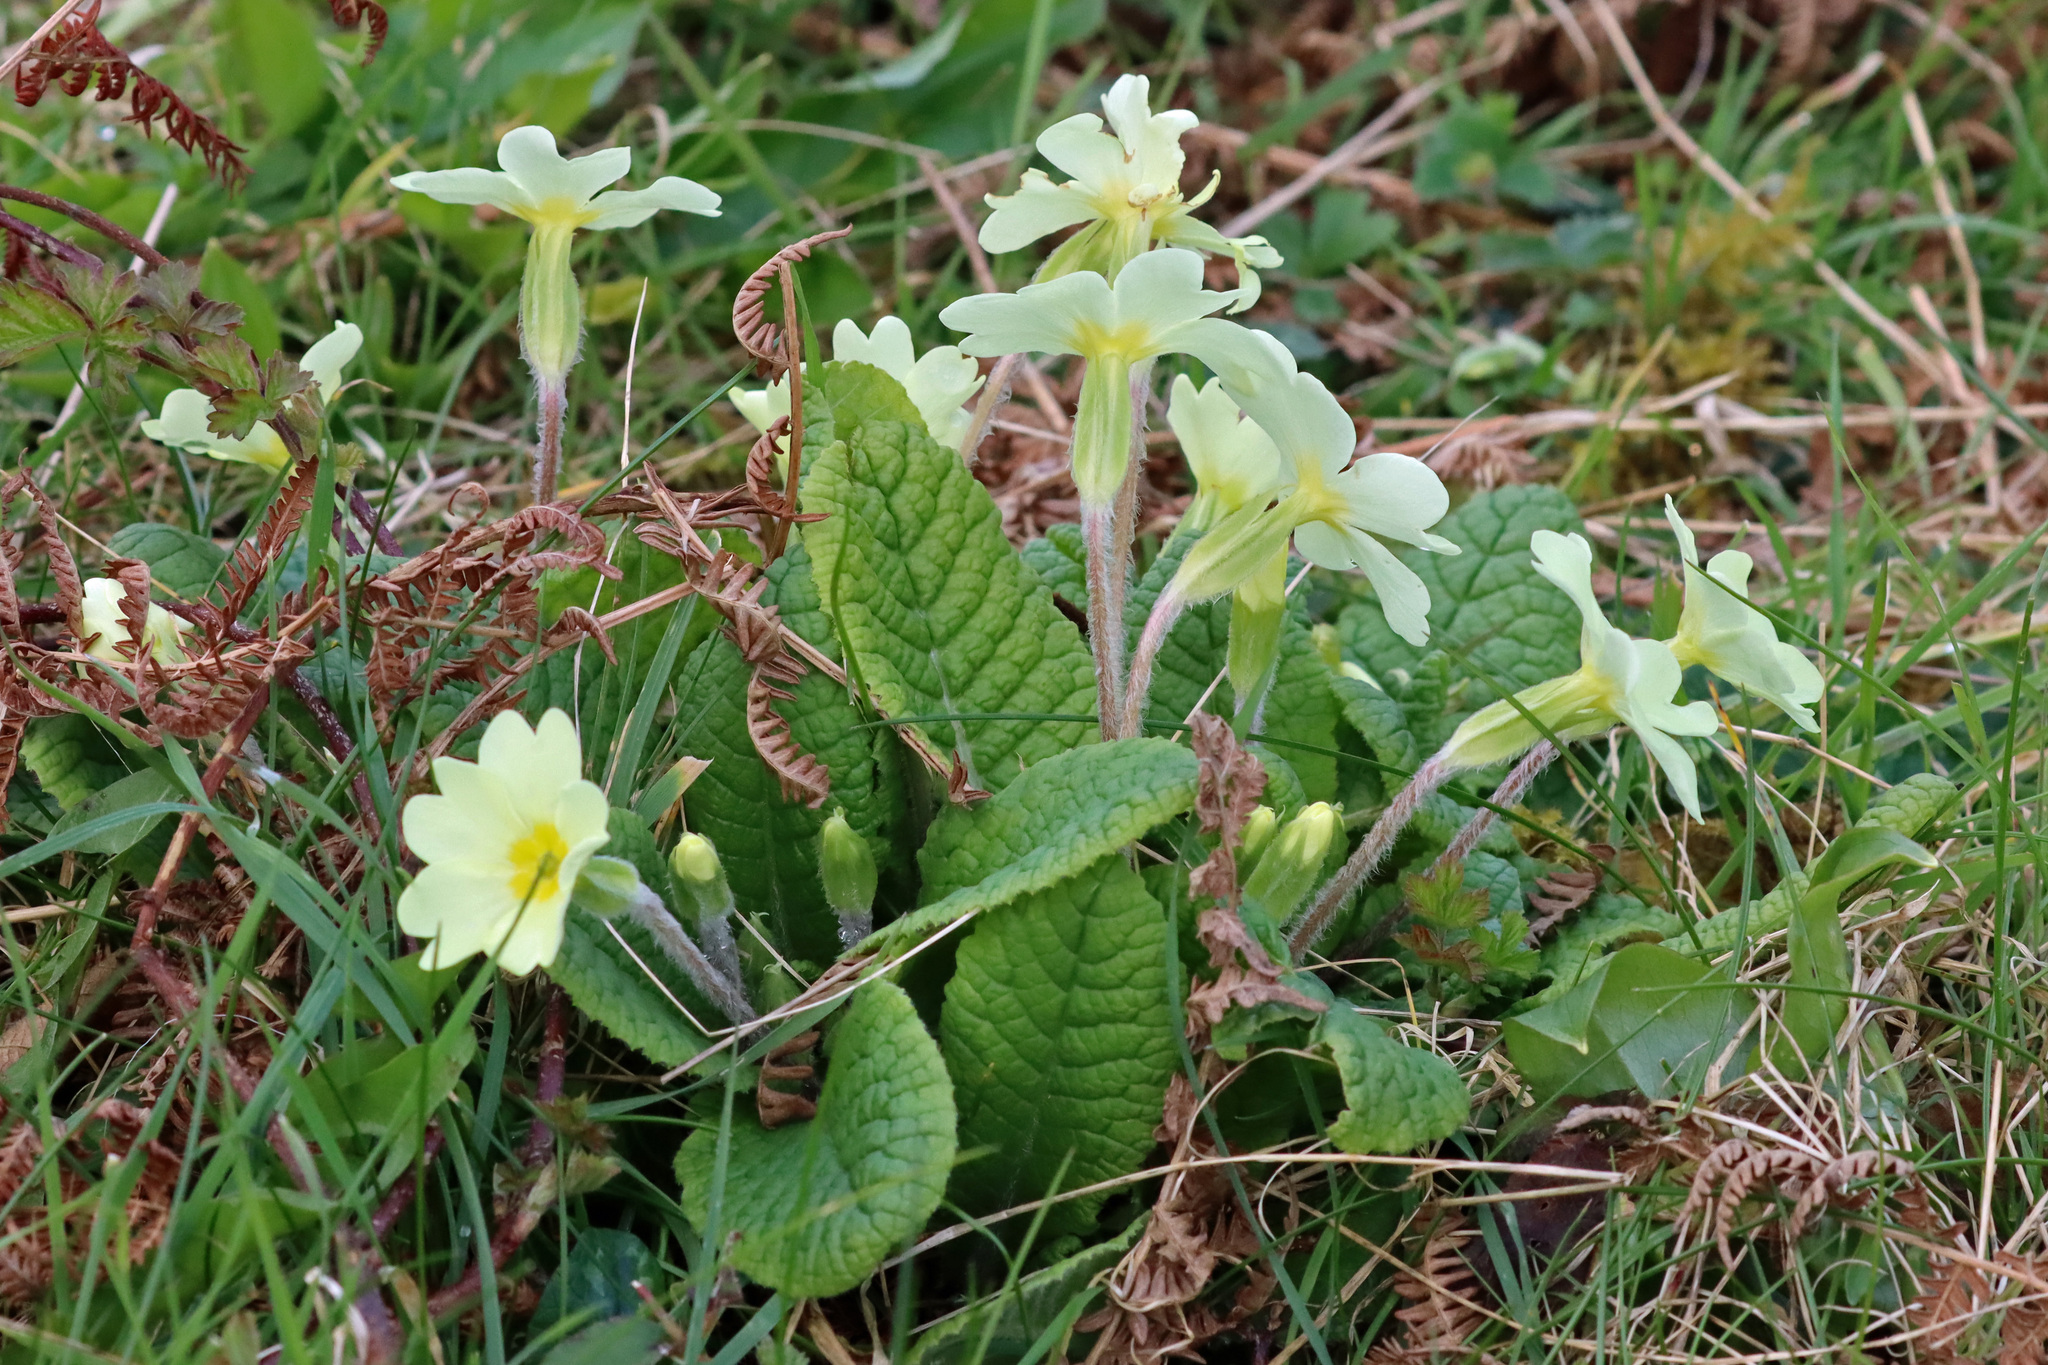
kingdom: Plantae
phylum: Tracheophyta
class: Magnoliopsida
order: Ericales
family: Primulaceae
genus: Primula
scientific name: Primula vulgaris
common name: Primrose
